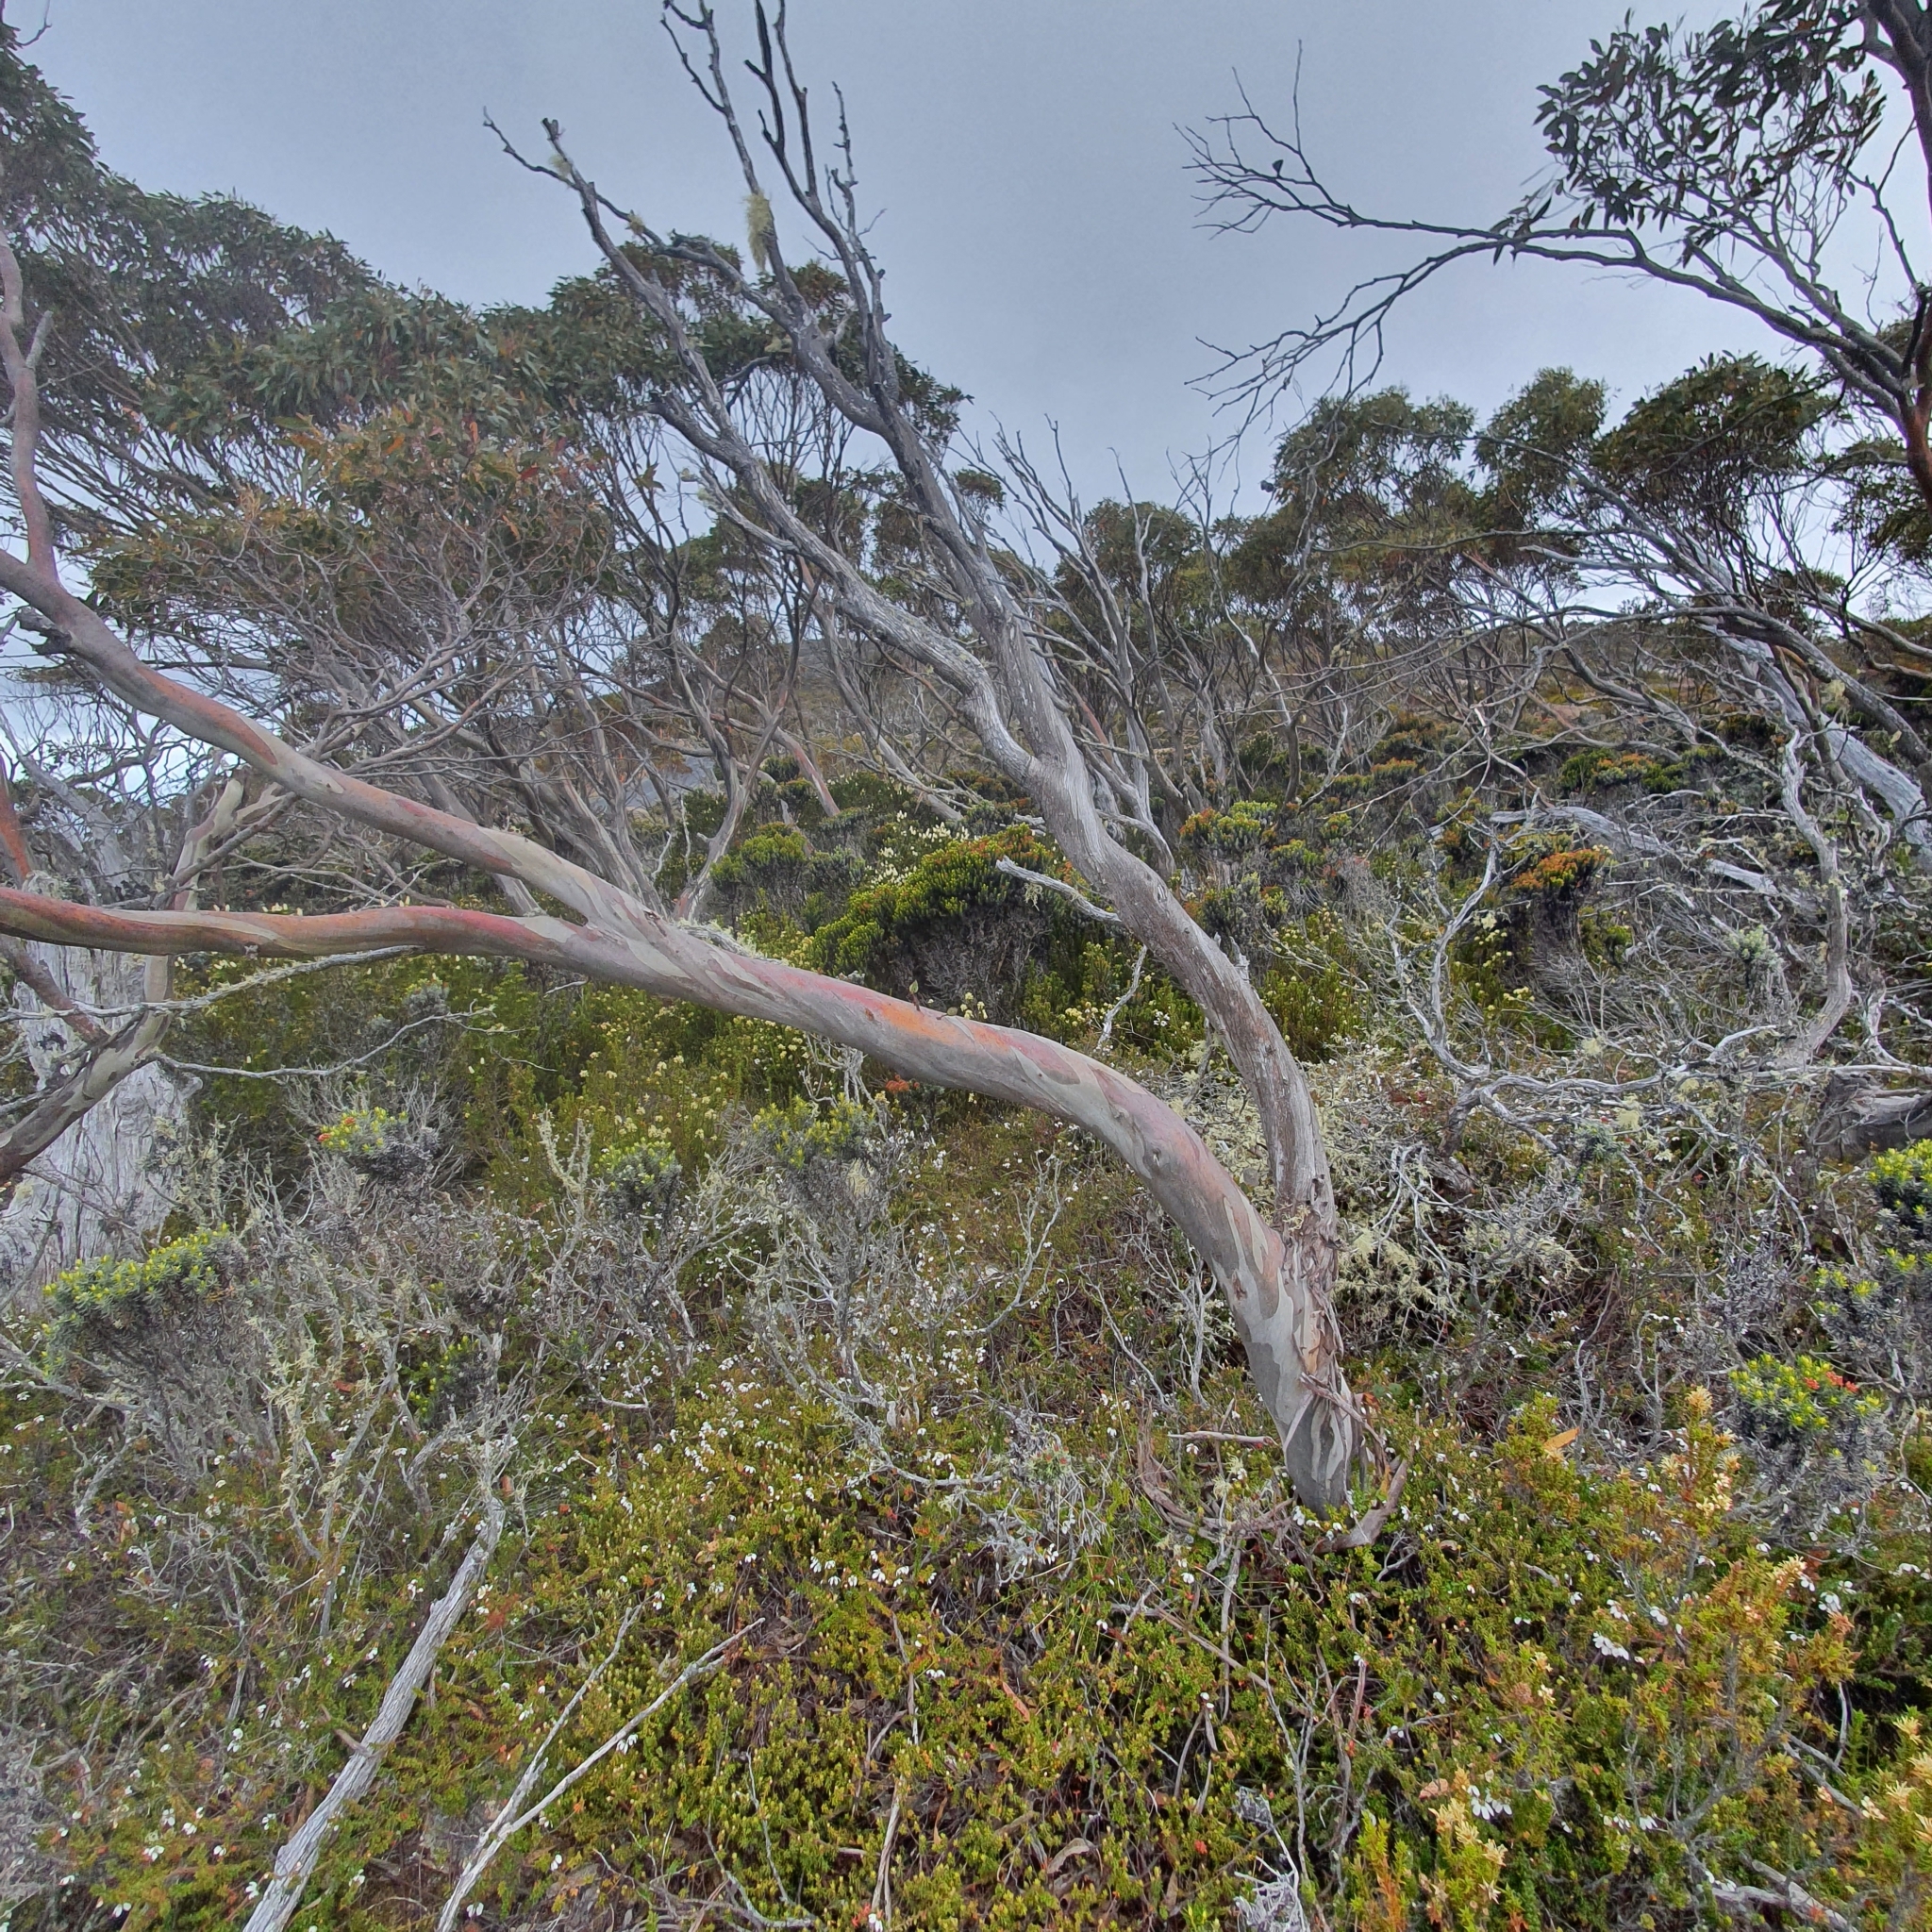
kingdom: Plantae
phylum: Tracheophyta
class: Magnoliopsida
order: Myrtales
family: Myrtaceae
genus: Eucalyptus
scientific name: Eucalyptus coccifera
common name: Tasmanian snow-gum
